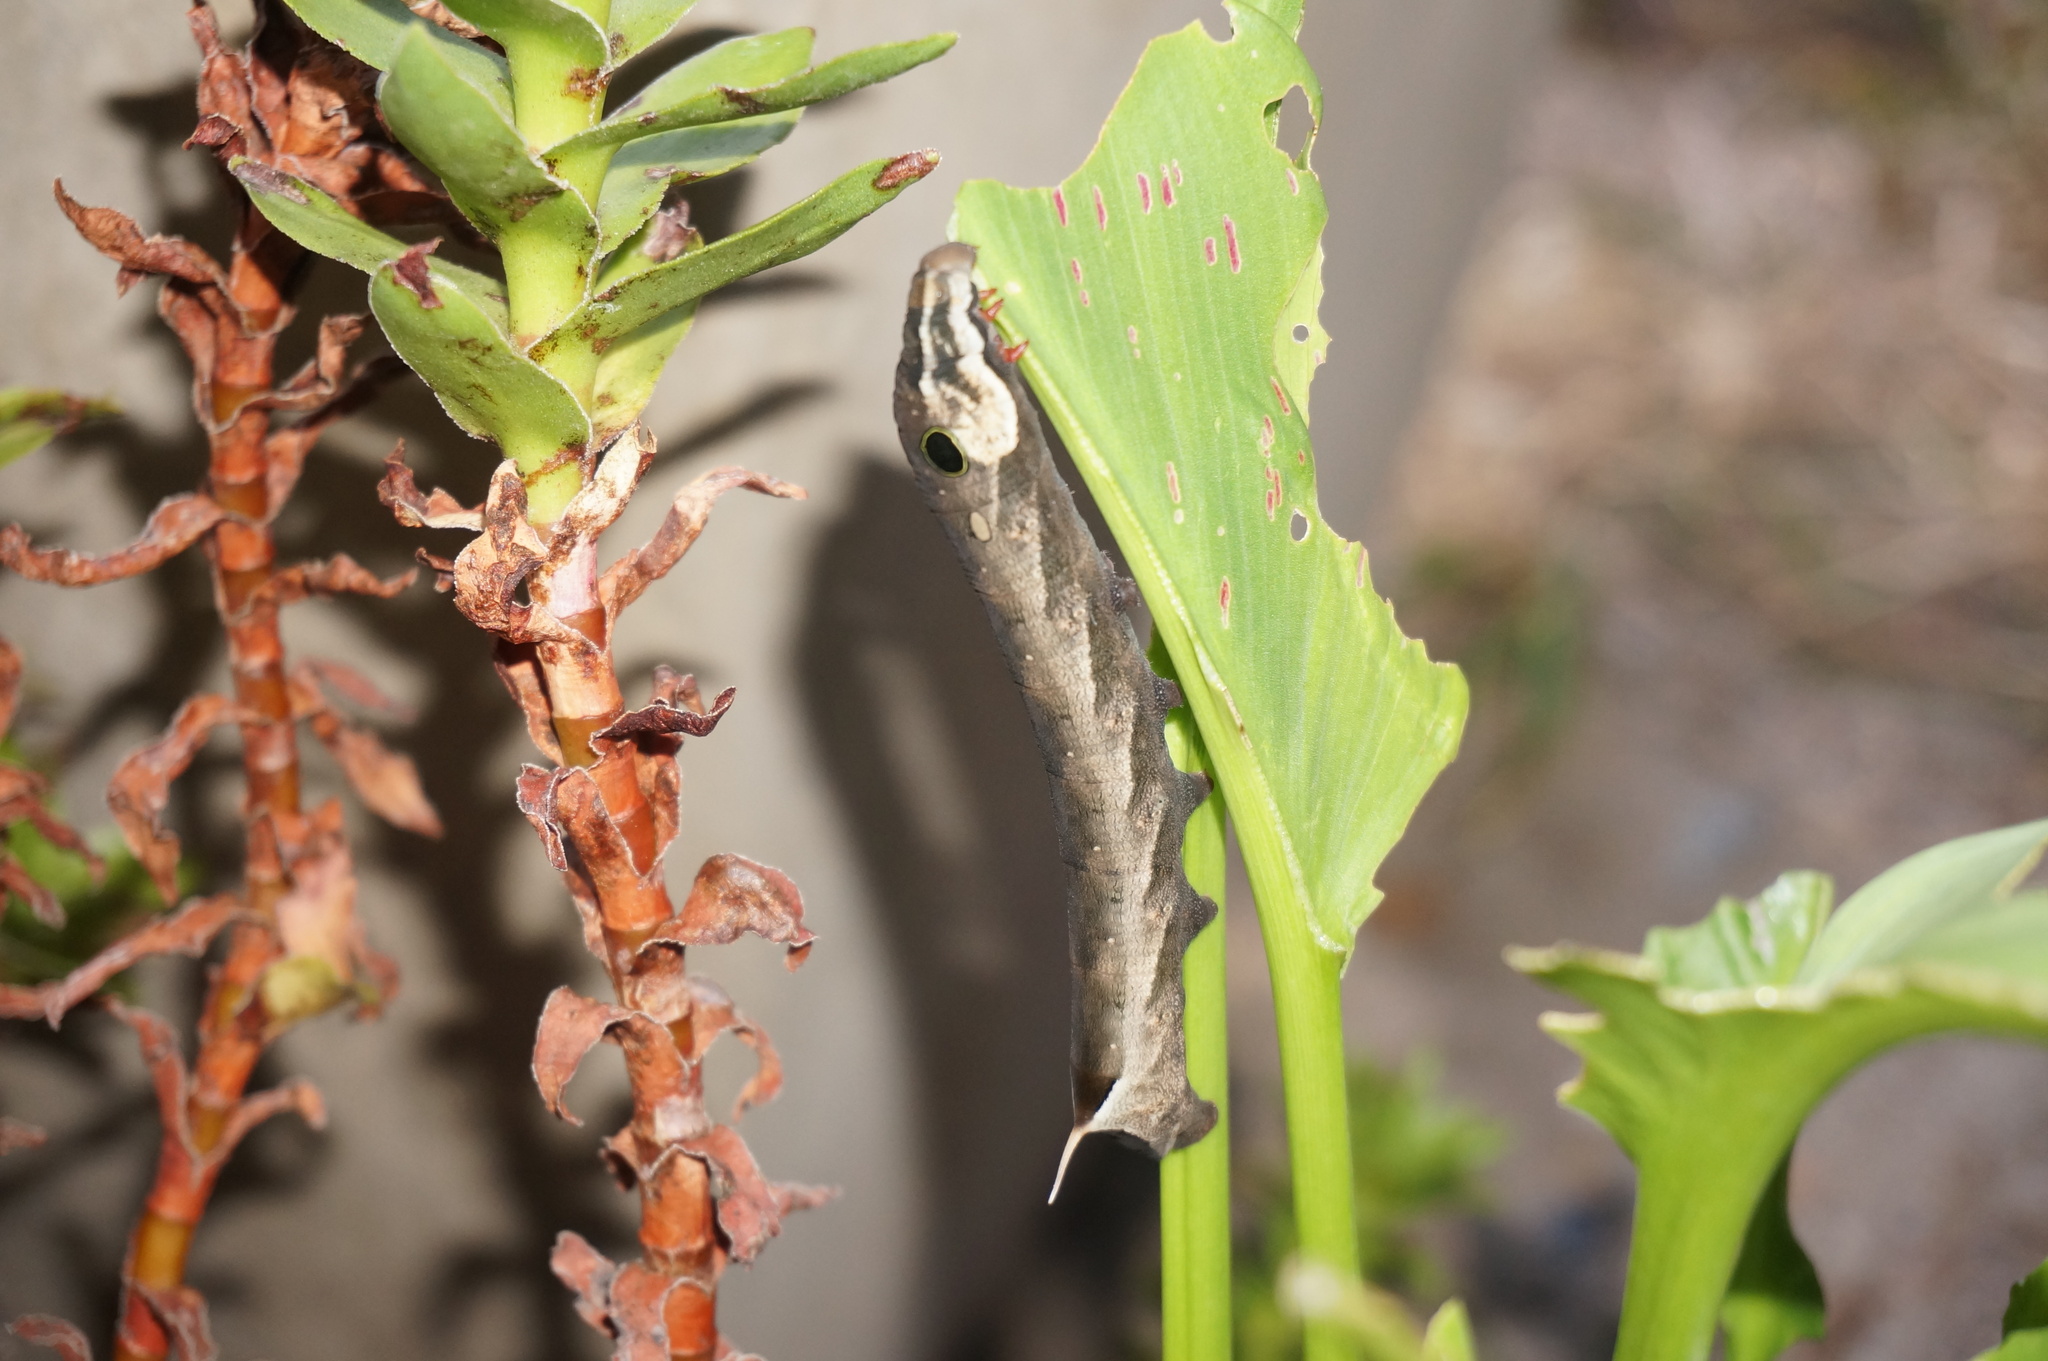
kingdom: Animalia
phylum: Arthropoda
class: Insecta
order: Lepidoptera
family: Sphingidae
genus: Hippotion
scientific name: Hippotion eson
